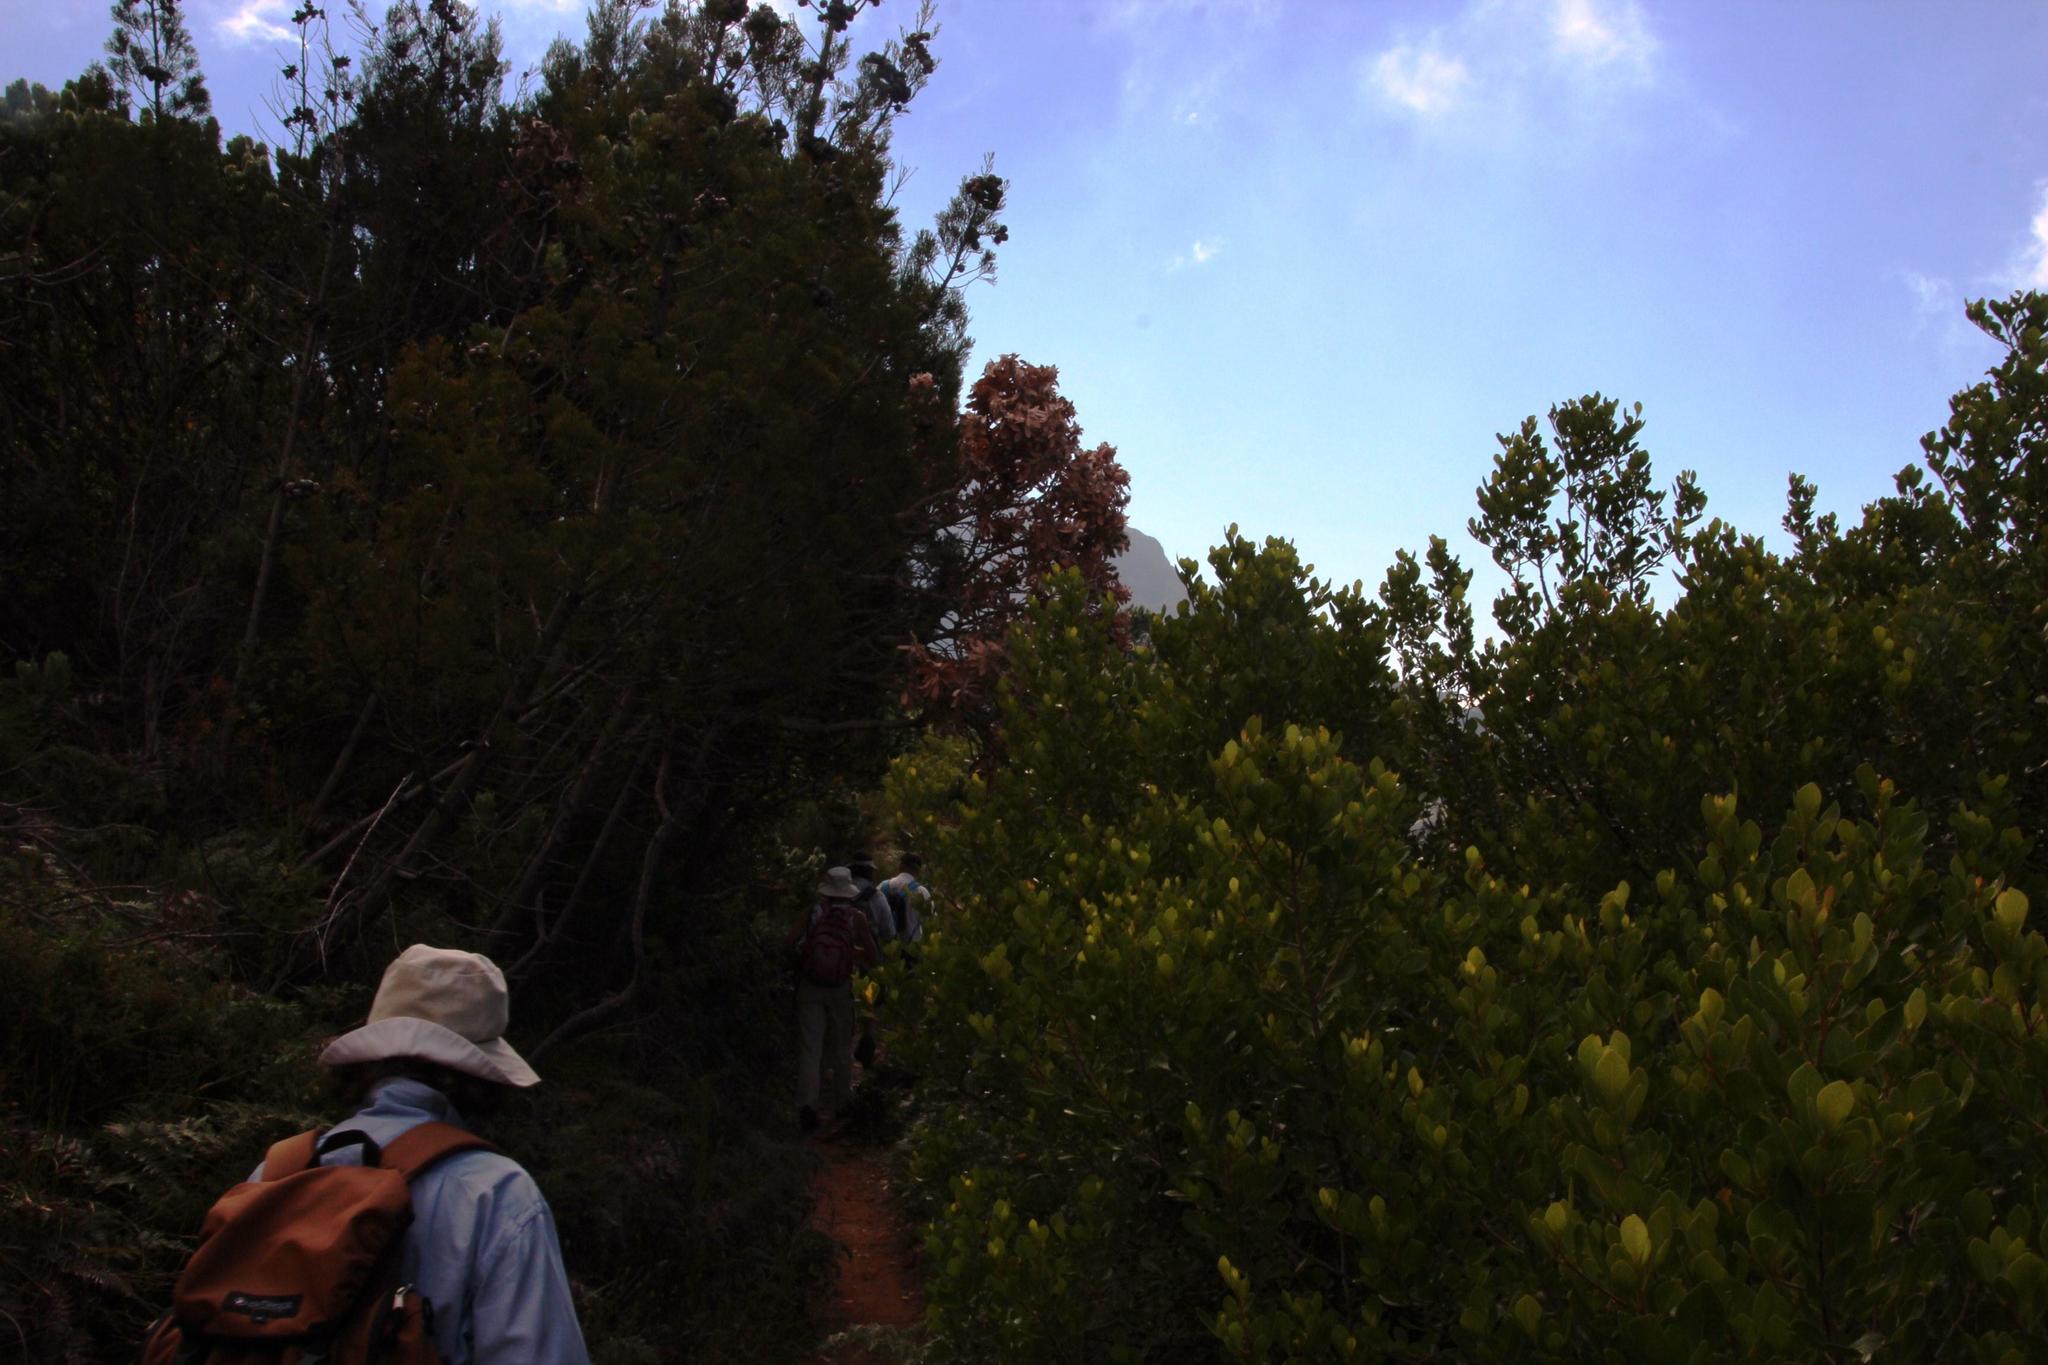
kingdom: Plantae
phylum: Tracheophyta
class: Pinopsida
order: Pinales
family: Cupressaceae
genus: Widdringtonia
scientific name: Widdringtonia nodiflora
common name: Cape cypress
